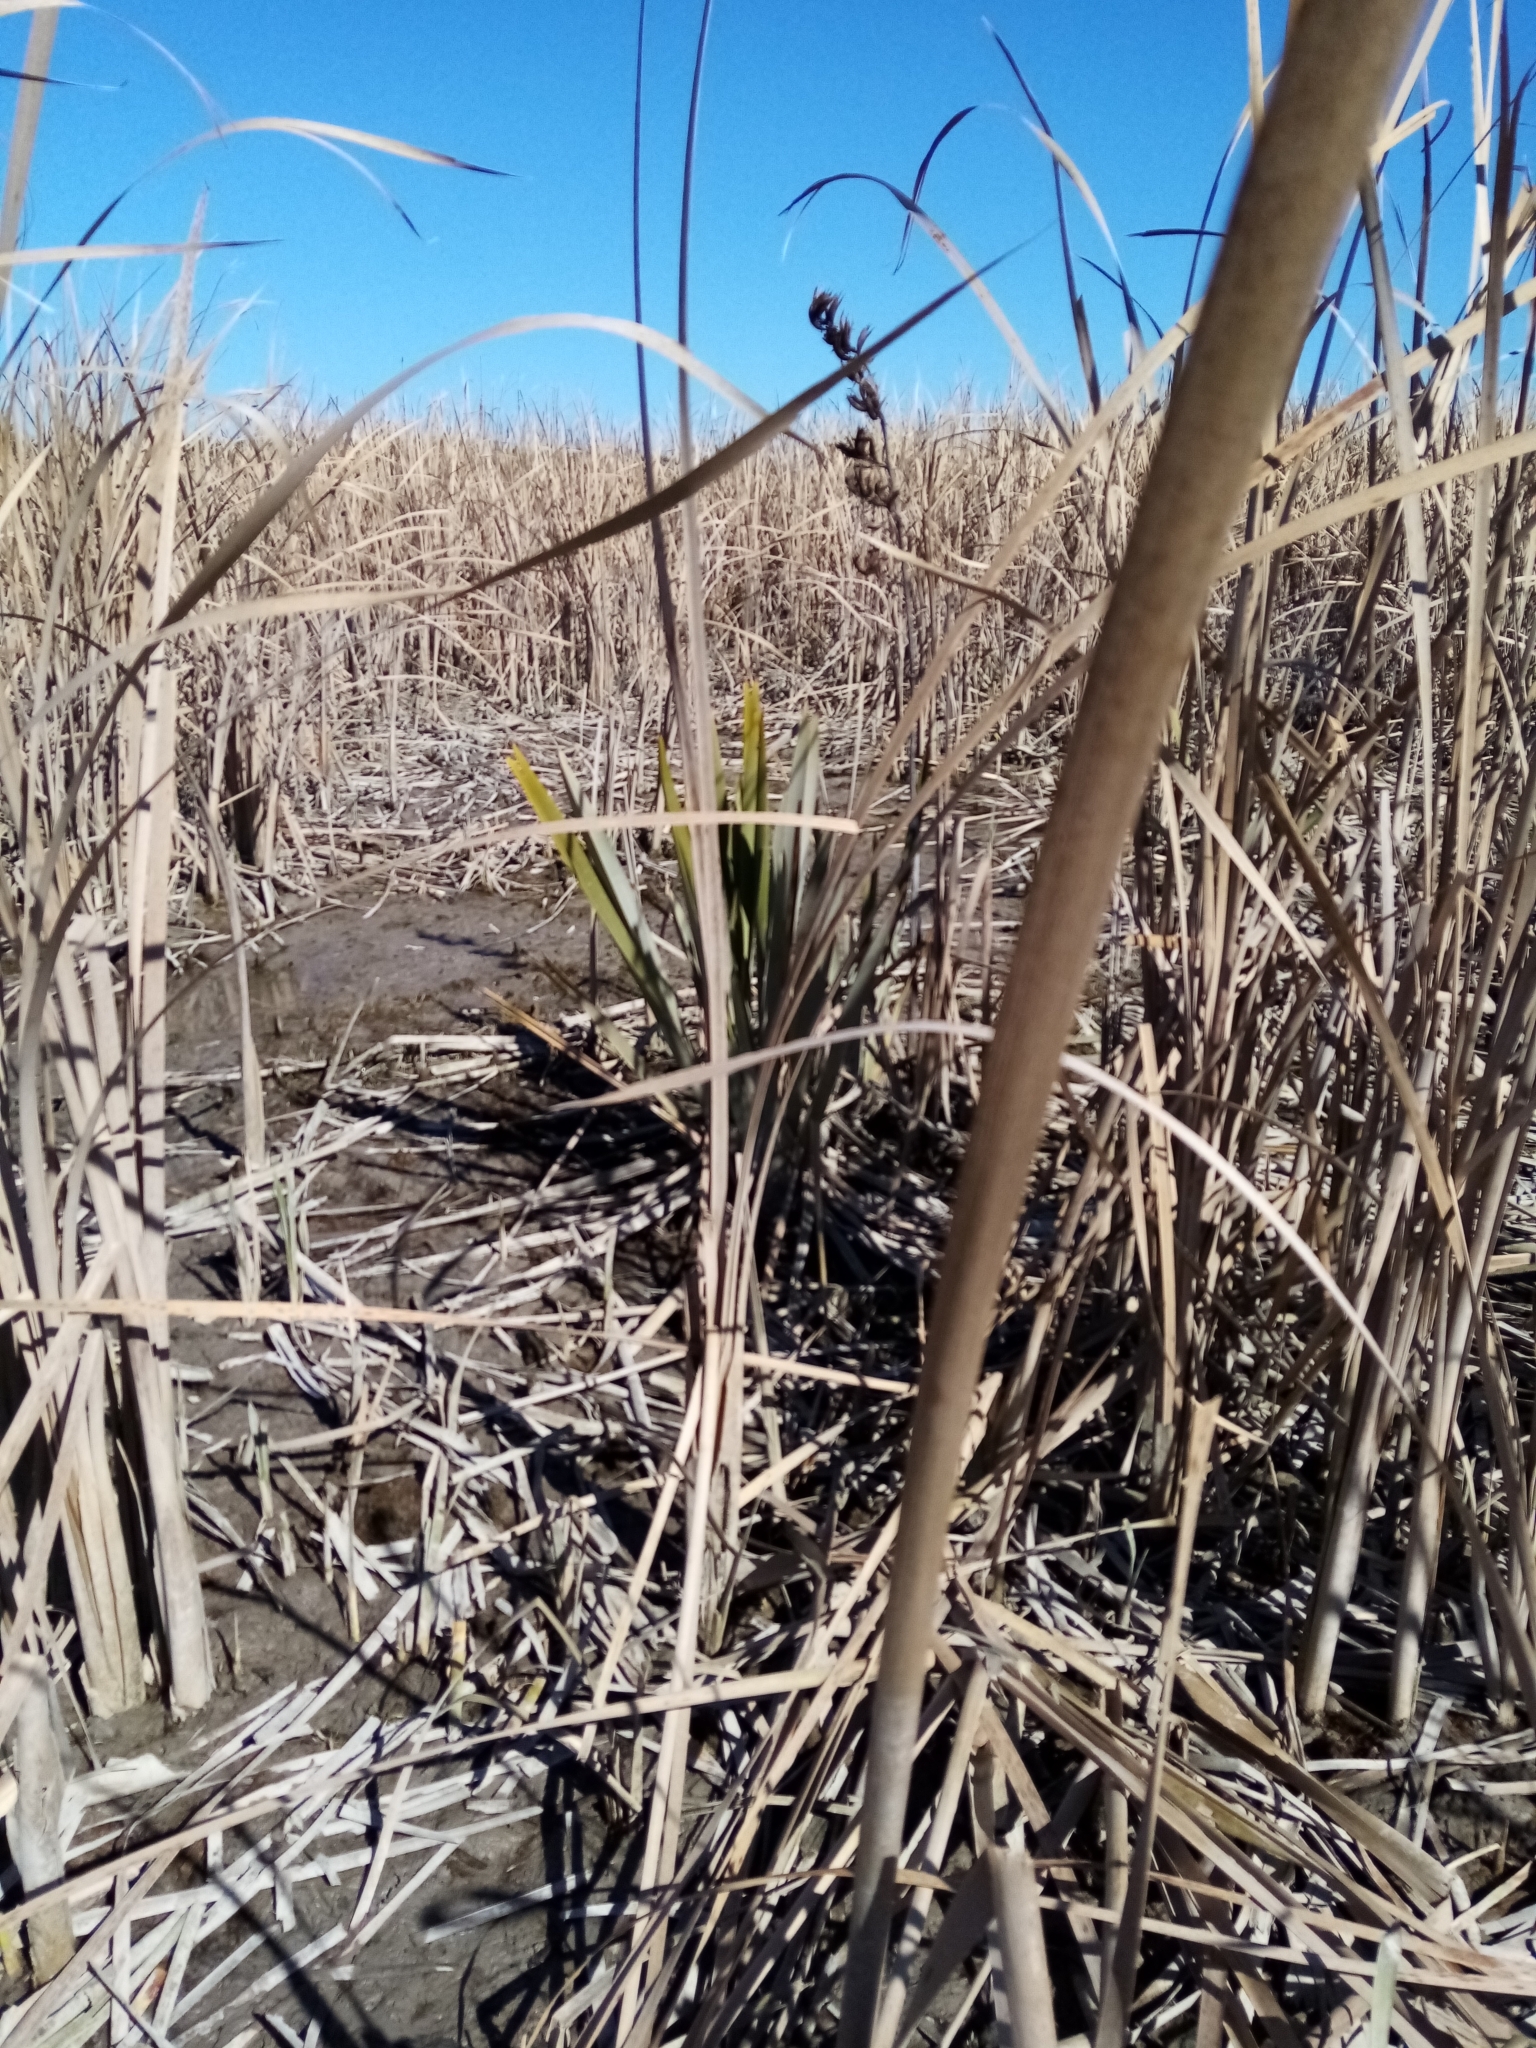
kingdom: Plantae
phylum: Tracheophyta
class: Liliopsida
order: Asparagales
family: Asphodelaceae
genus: Phormium
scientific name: Phormium tenax
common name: New zealand flax
